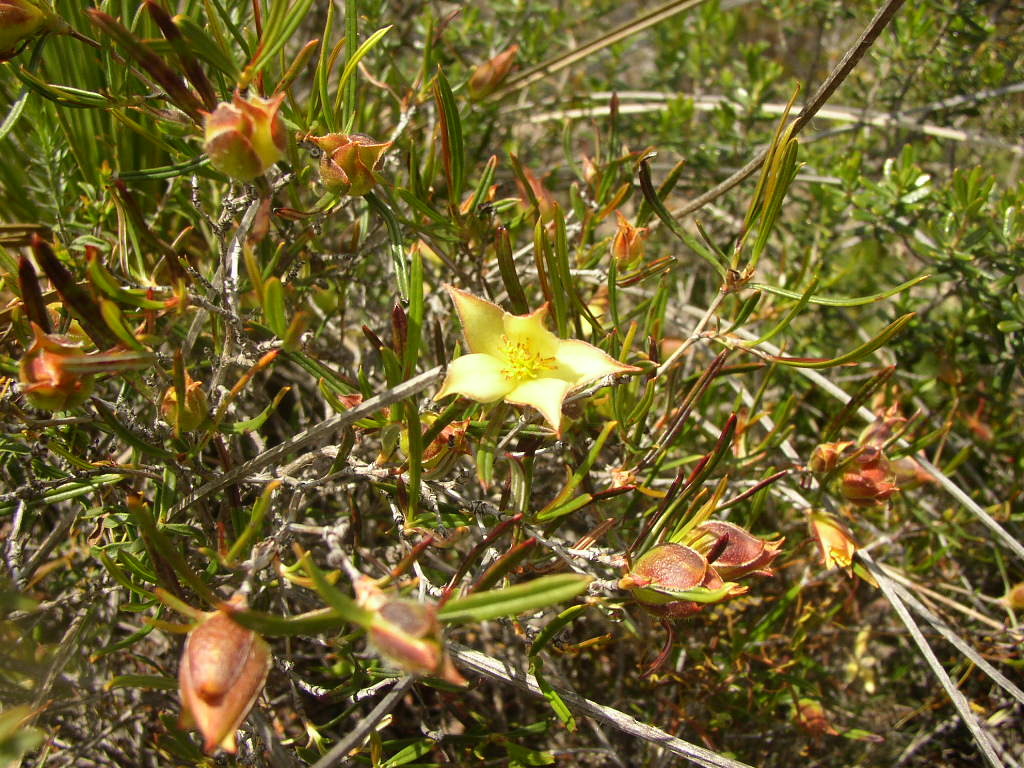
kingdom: Plantae
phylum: Tracheophyta
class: Magnoliopsida
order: Dilleniales
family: Dilleniaceae
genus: Hibbertia
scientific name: Hibbertia striata
